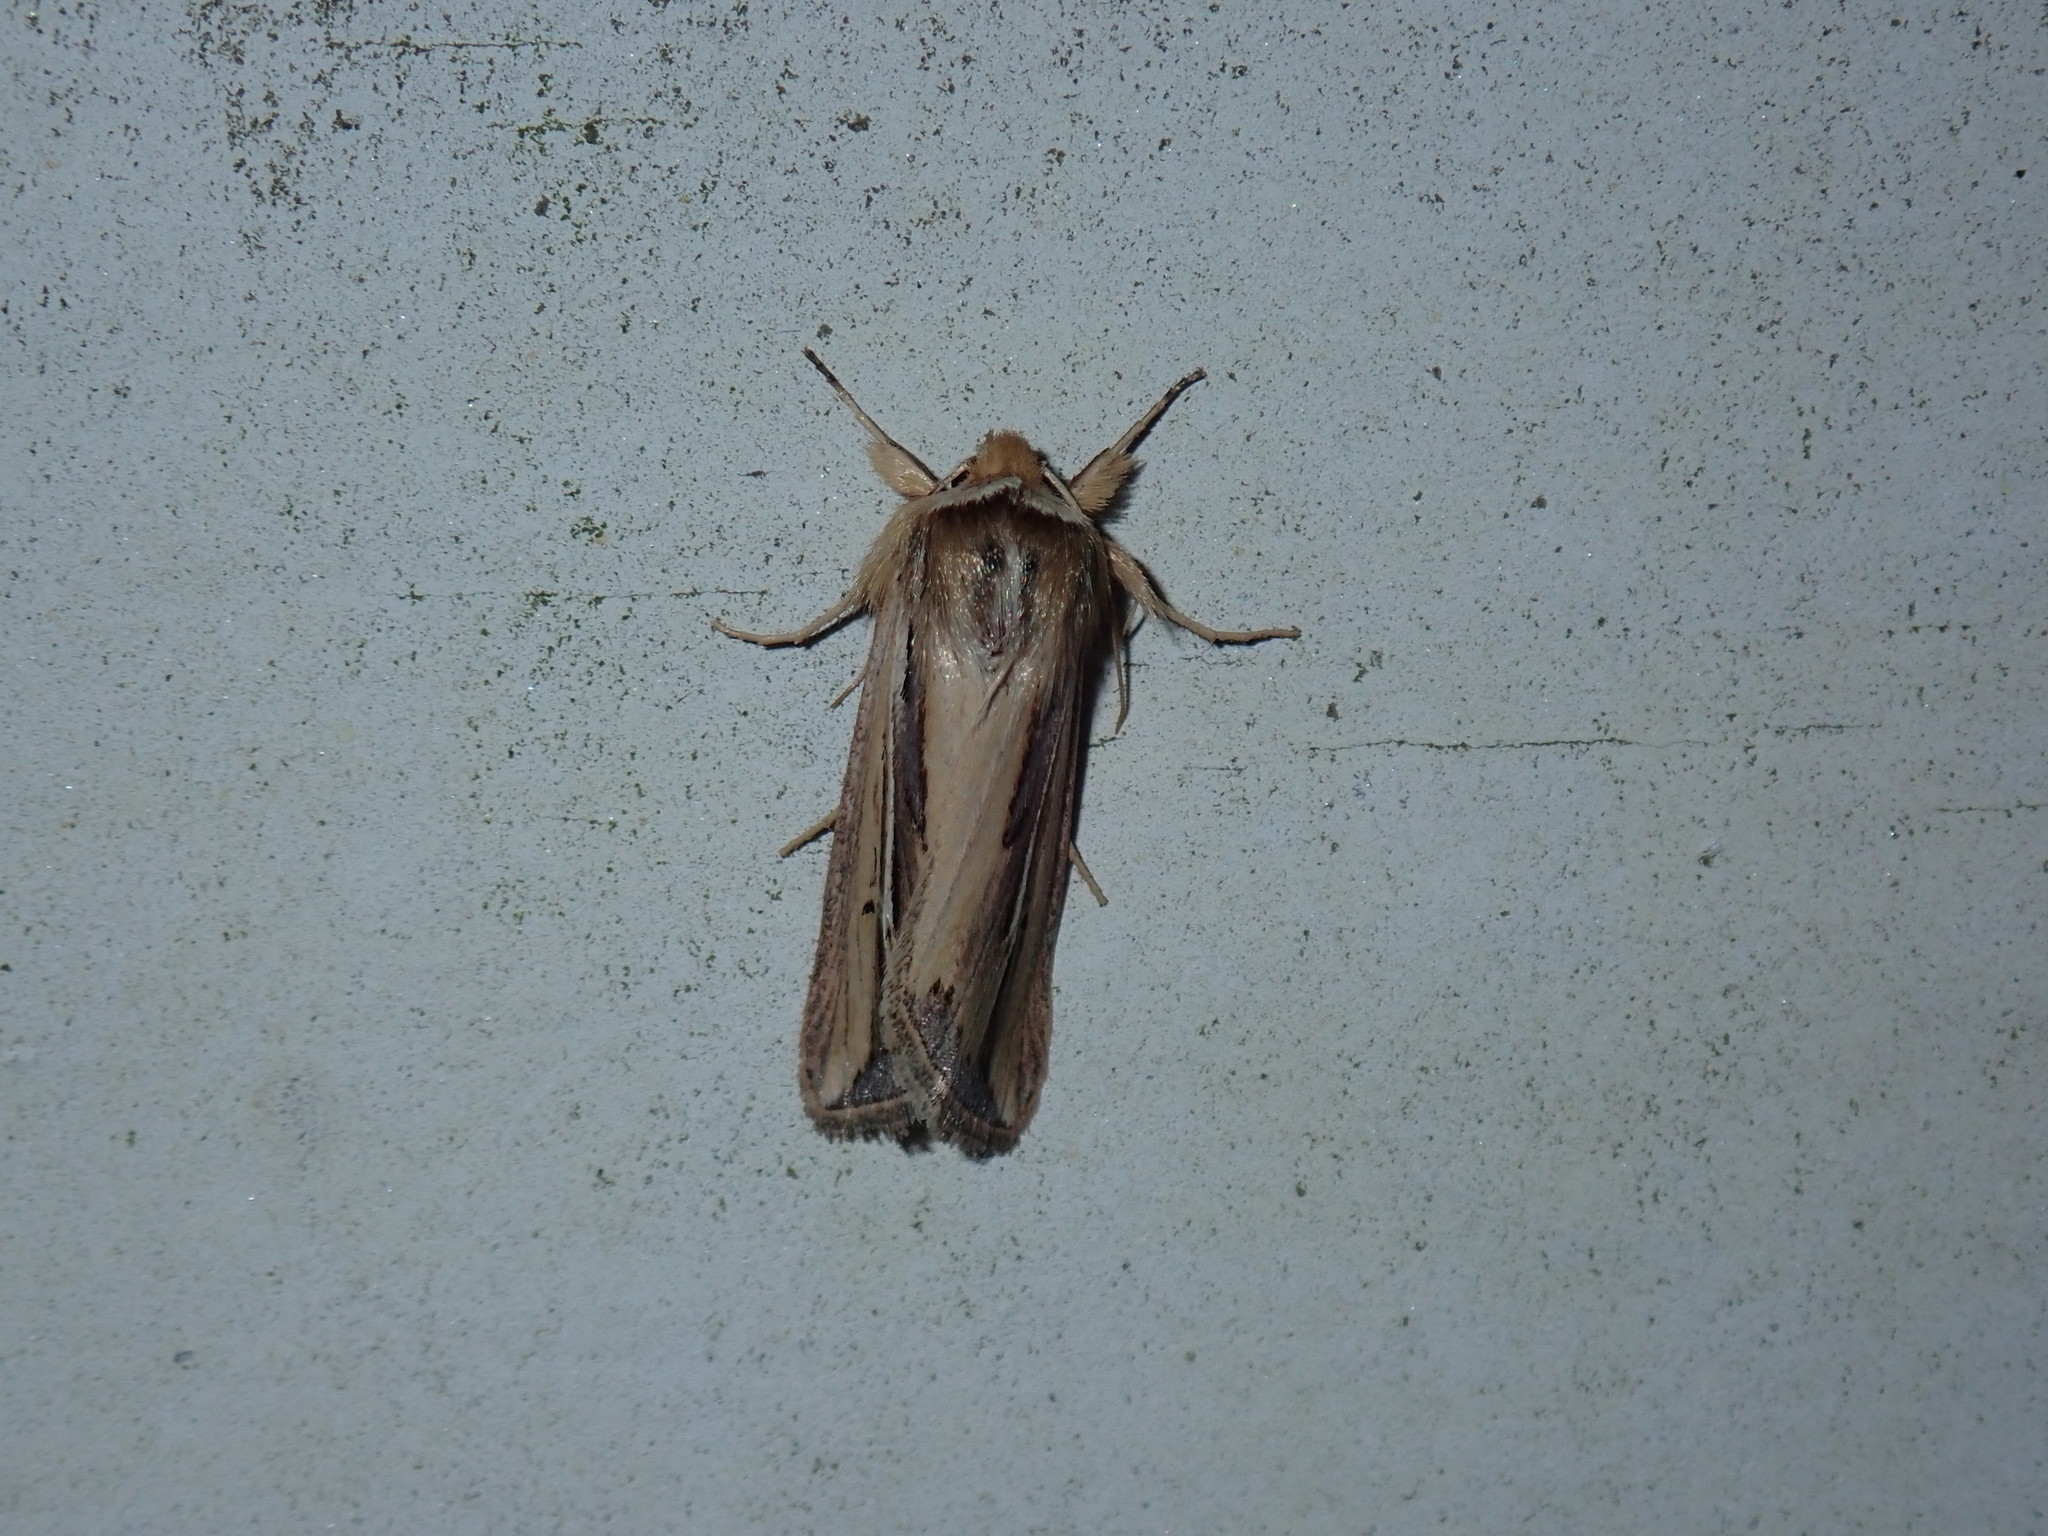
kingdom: Animalia
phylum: Arthropoda
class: Insecta
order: Lepidoptera
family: Noctuidae
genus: Dargida
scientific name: Dargida diffusa
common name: Wheat head armyworm
